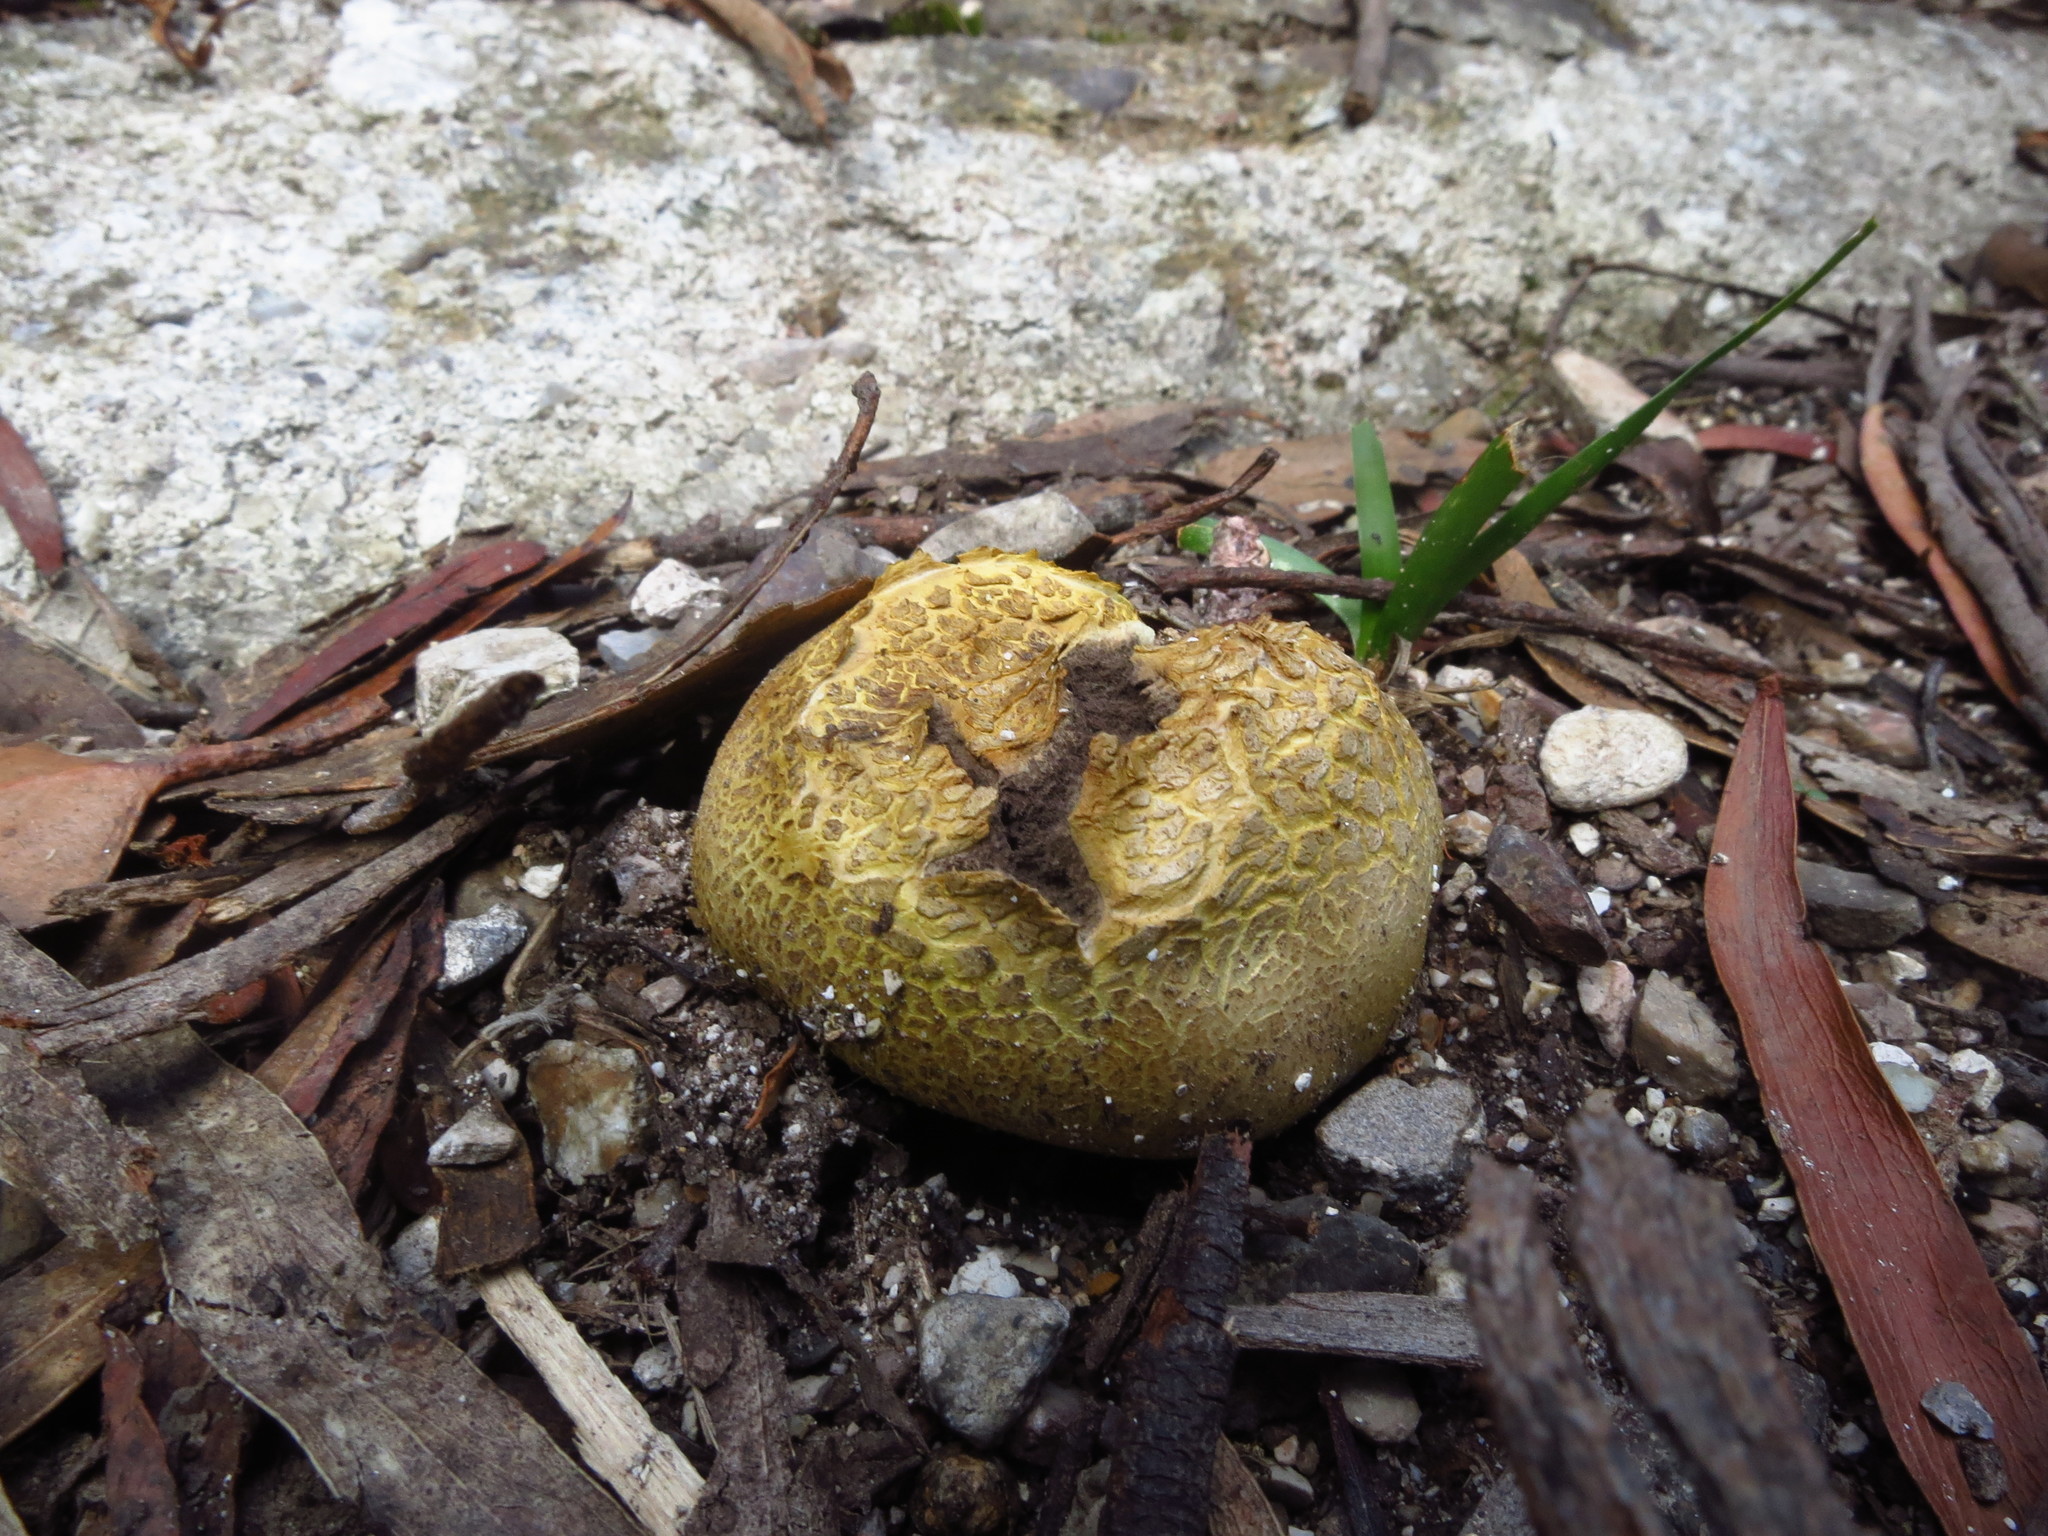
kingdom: Fungi
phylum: Basidiomycota
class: Agaricomycetes
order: Boletales
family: Sclerodermataceae
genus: Scleroderma
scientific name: Scleroderma cepa
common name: Onion earthball
